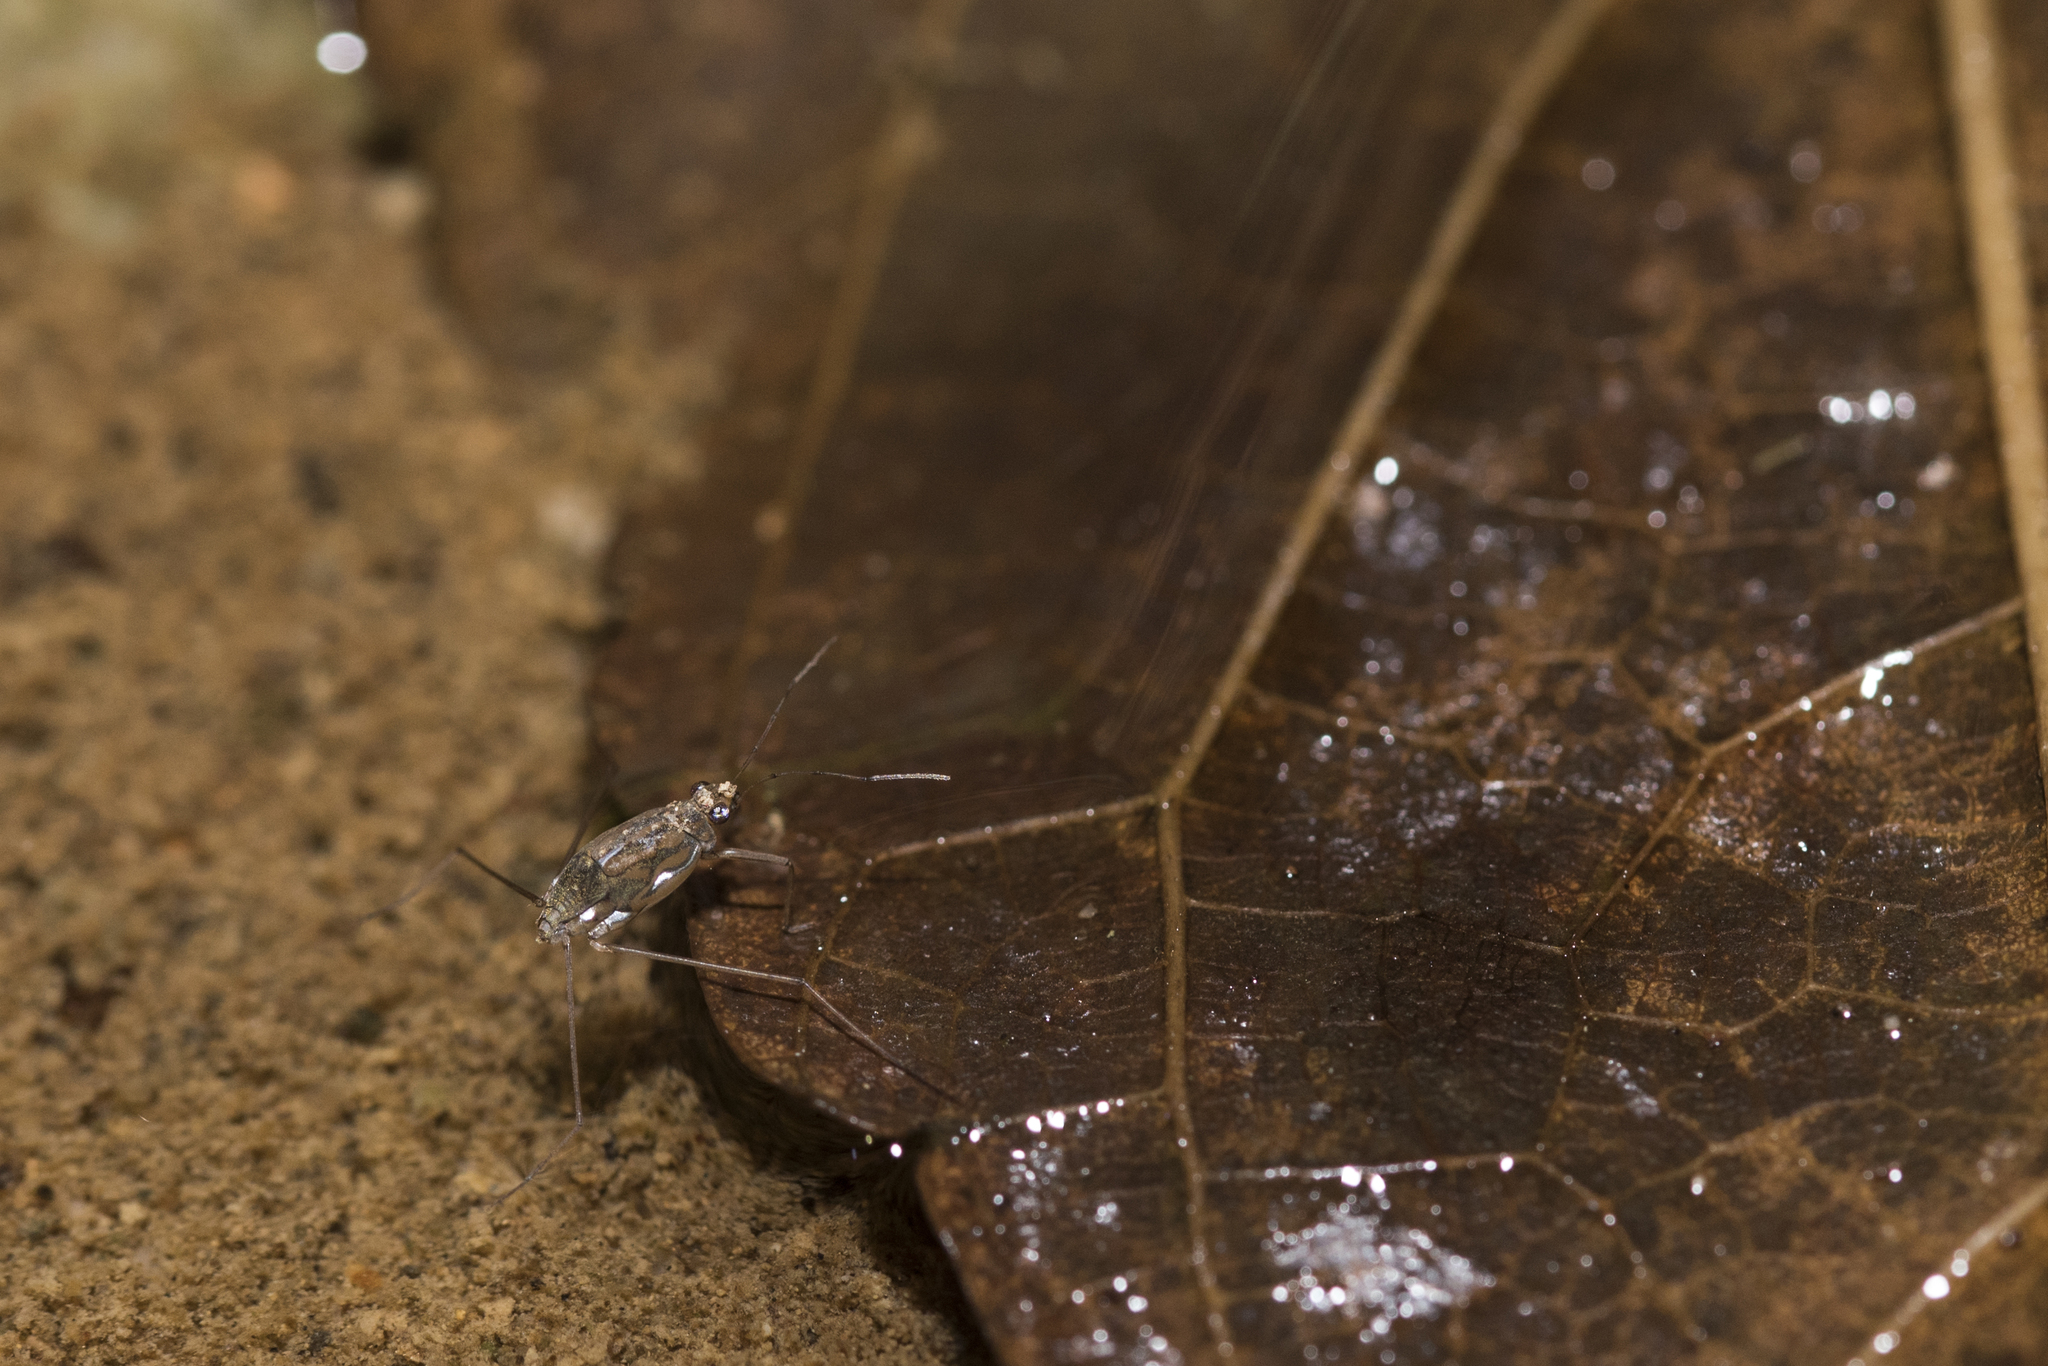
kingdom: Animalia
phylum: Arthropoda
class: Insecta
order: Hemiptera
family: Gerridae
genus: Amemboa
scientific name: Amemboa fumi
